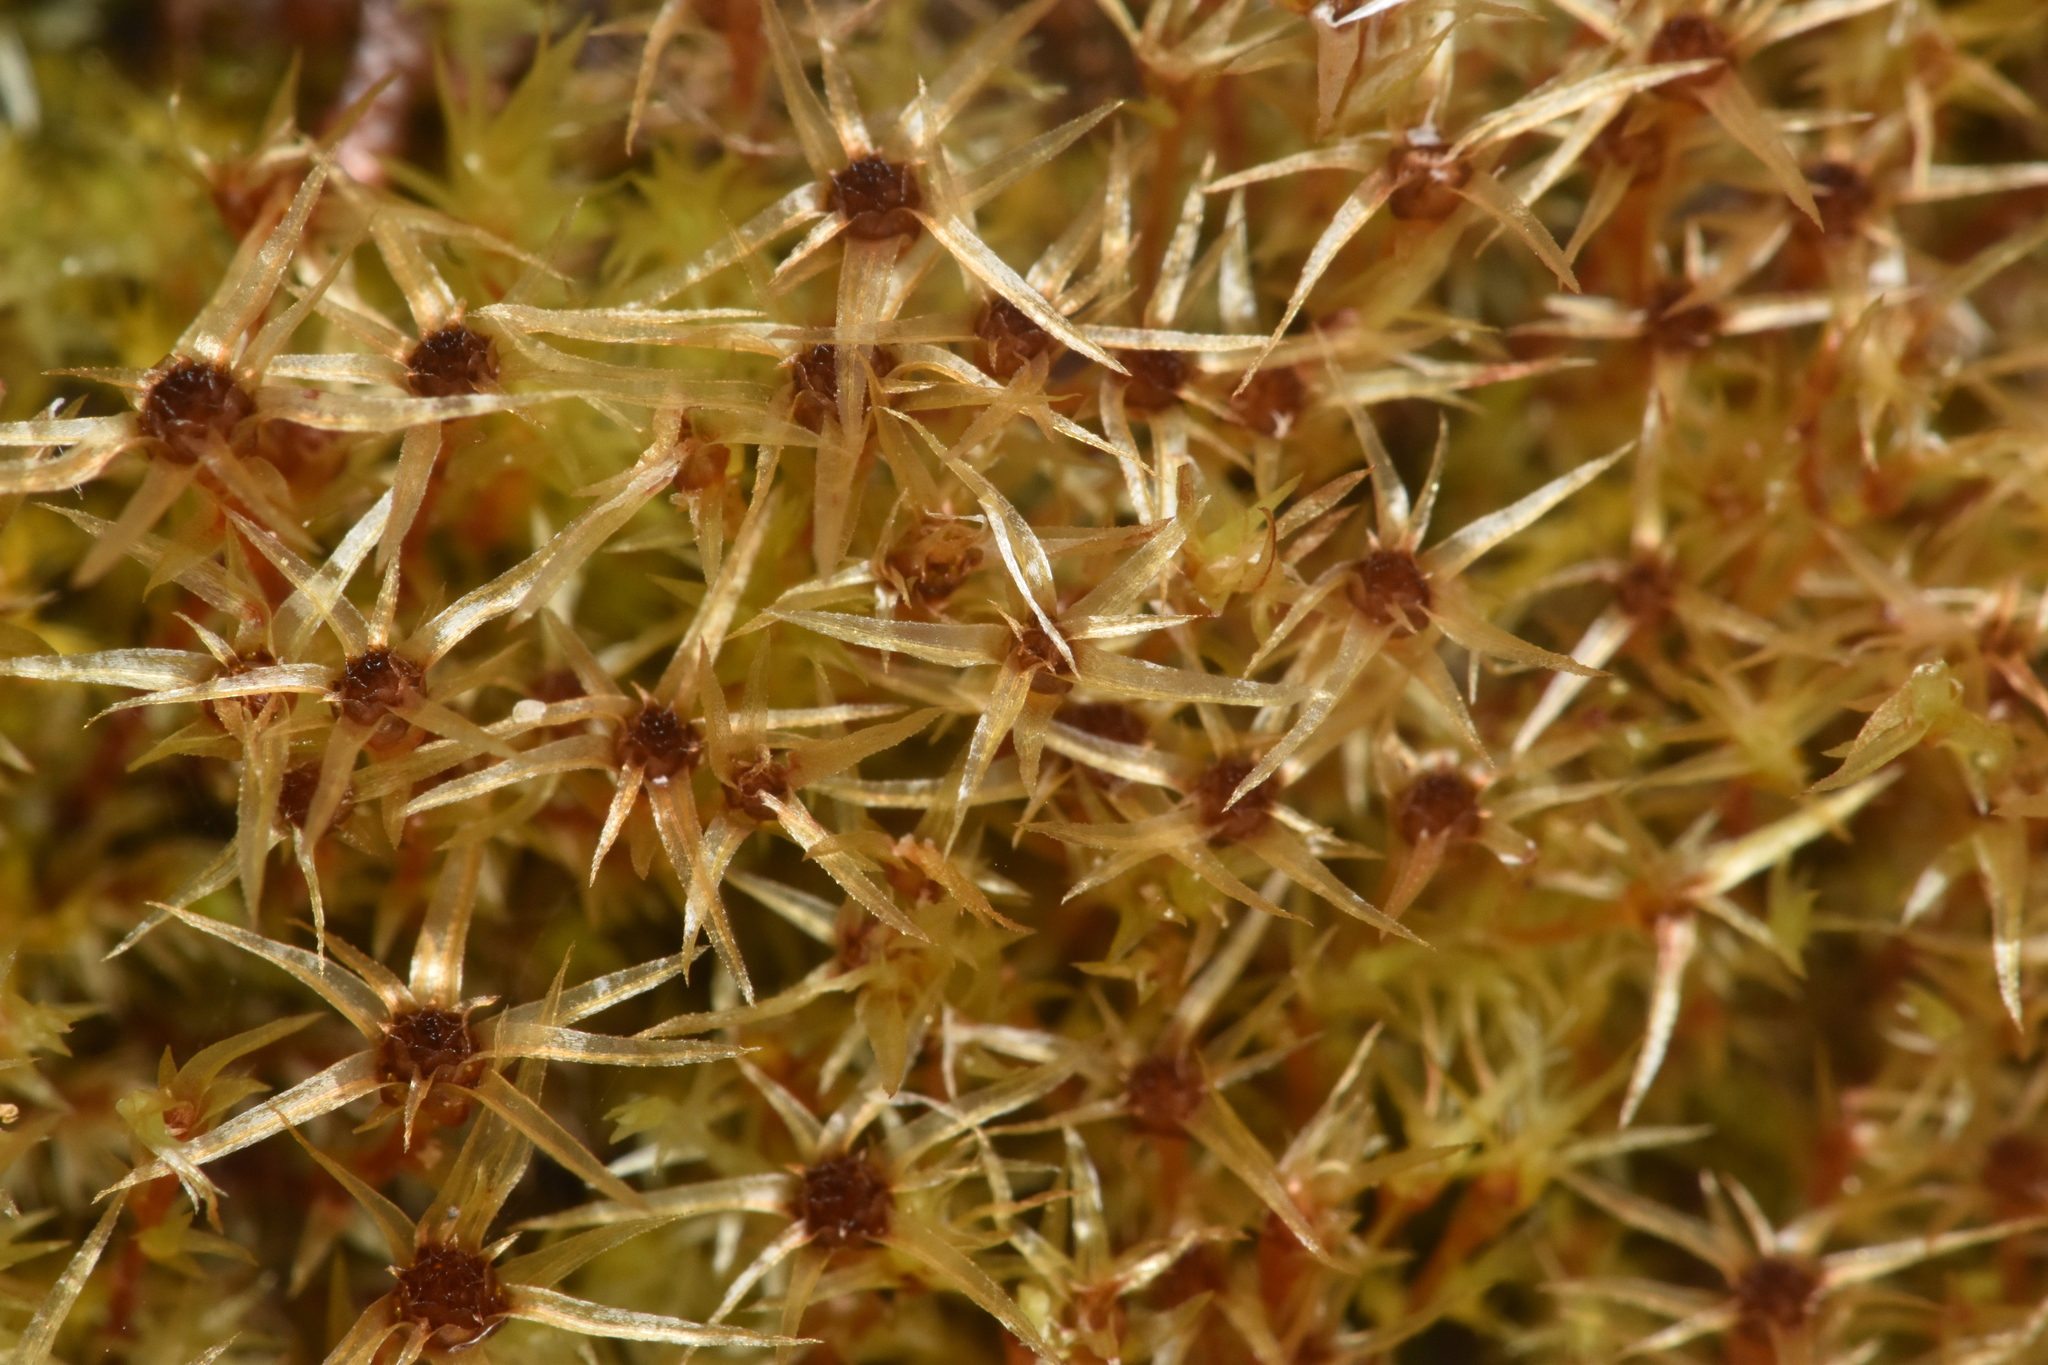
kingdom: Plantae
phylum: Bryophyta
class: Bryopsida
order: Bryales
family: Mniaceae
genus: Pohlia
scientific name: Pohlia longibracteata
